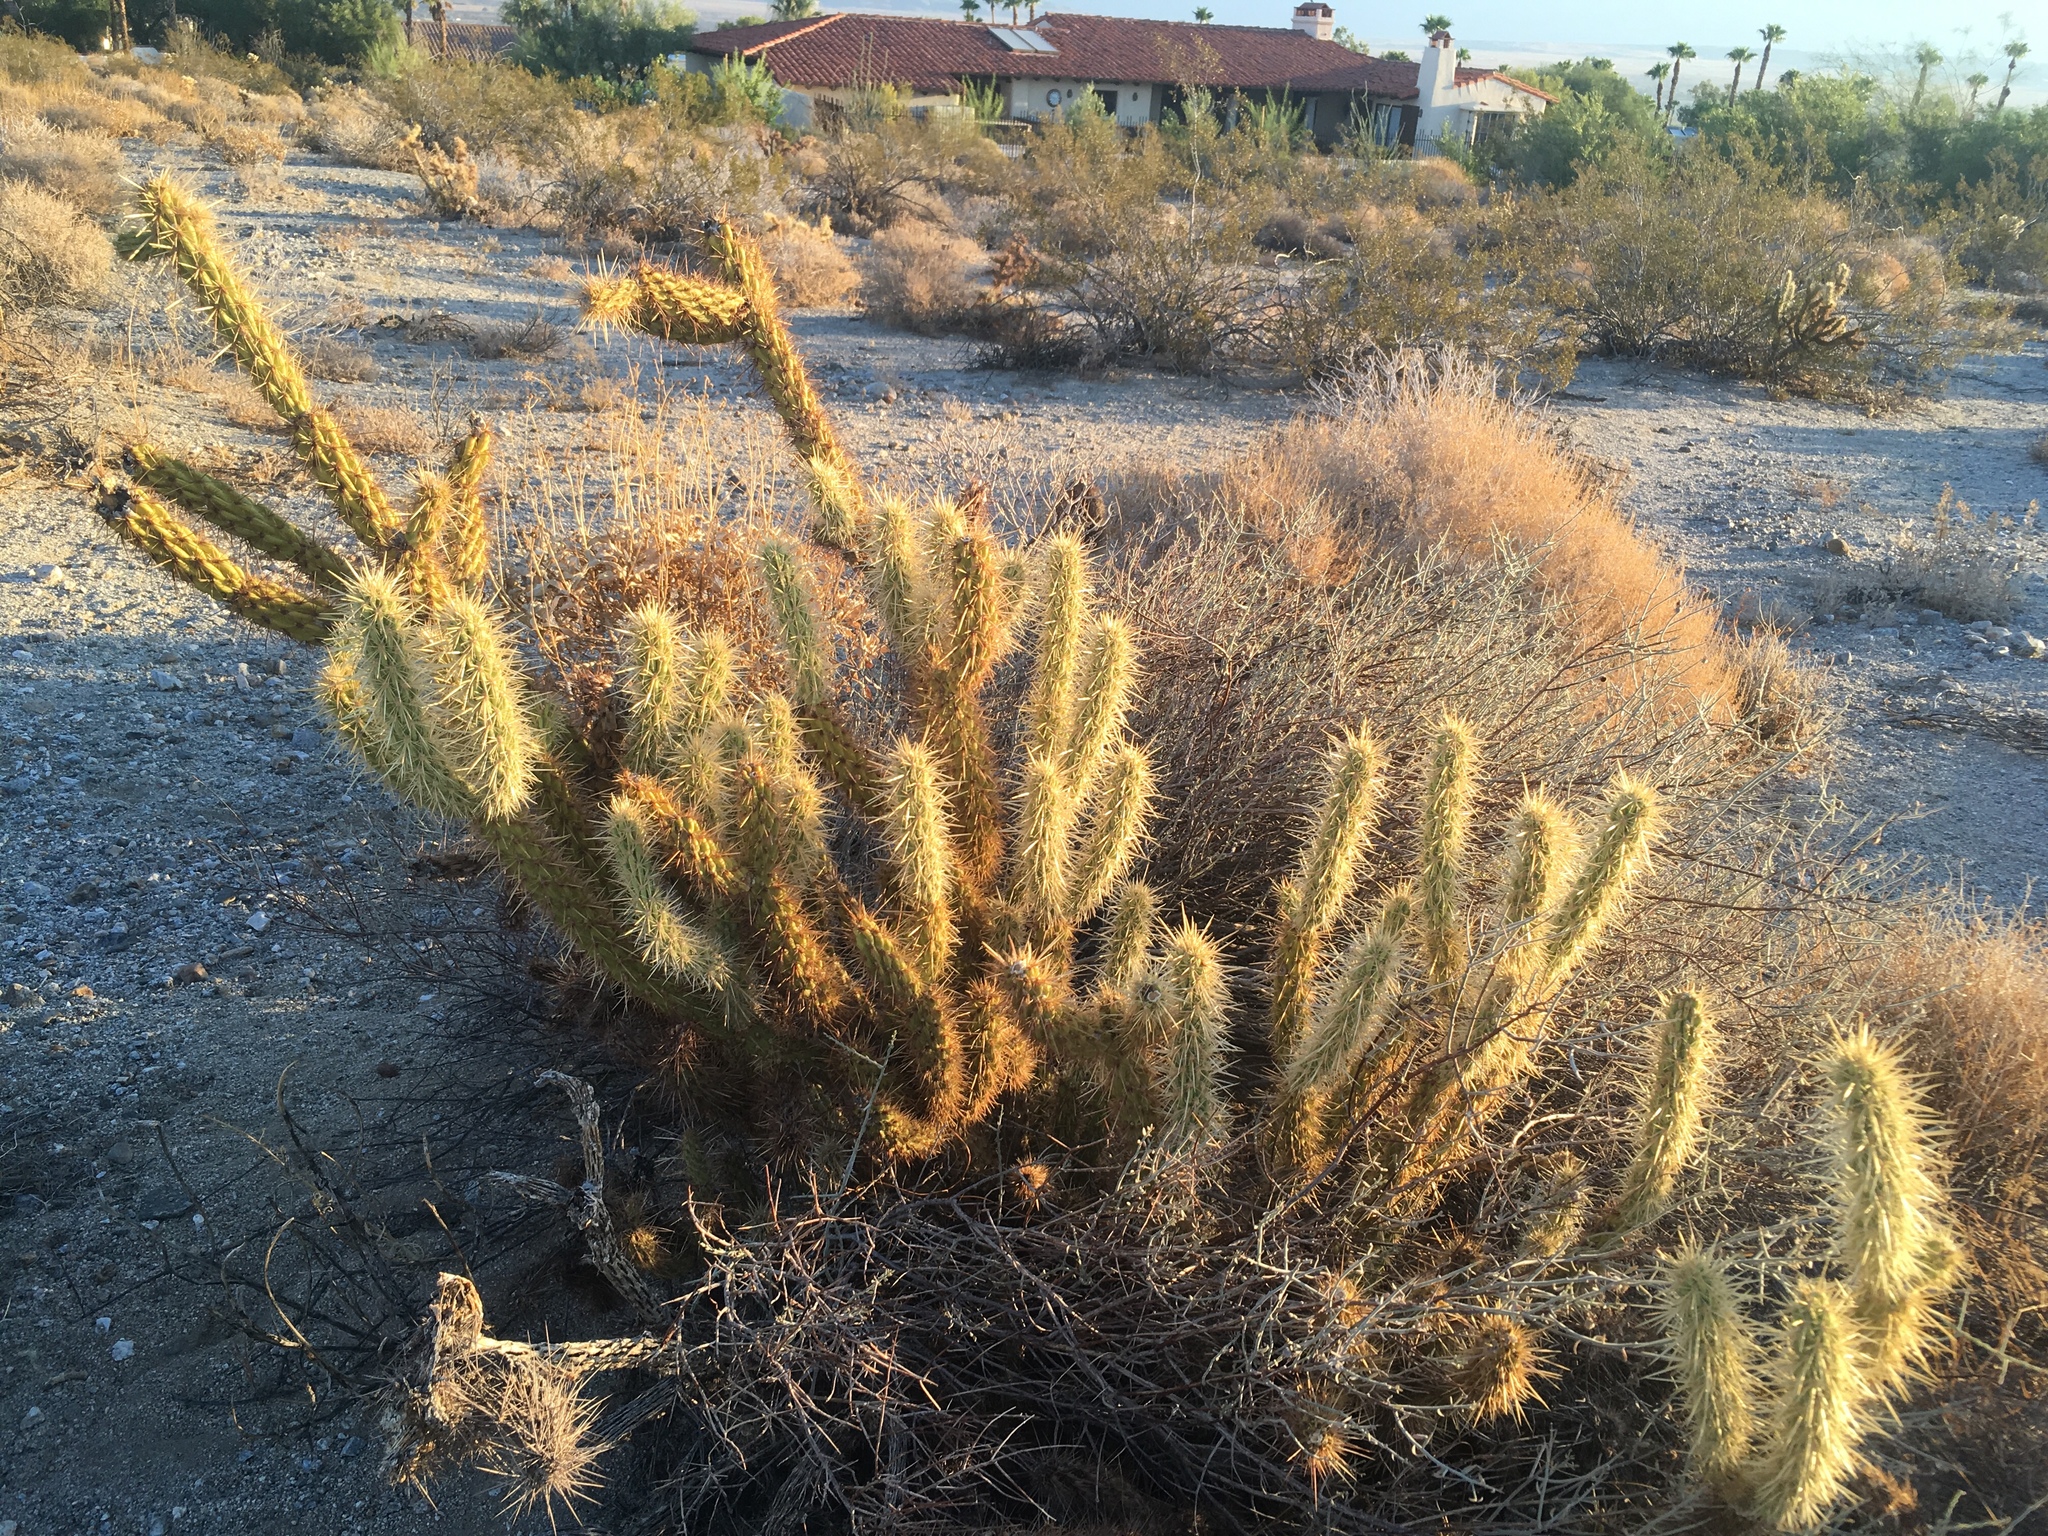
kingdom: Plantae
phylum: Tracheophyta
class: Magnoliopsida
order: Caryophyllales
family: Cactaceae
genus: Cylindropuntia
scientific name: Cylindropuntia ganderi
